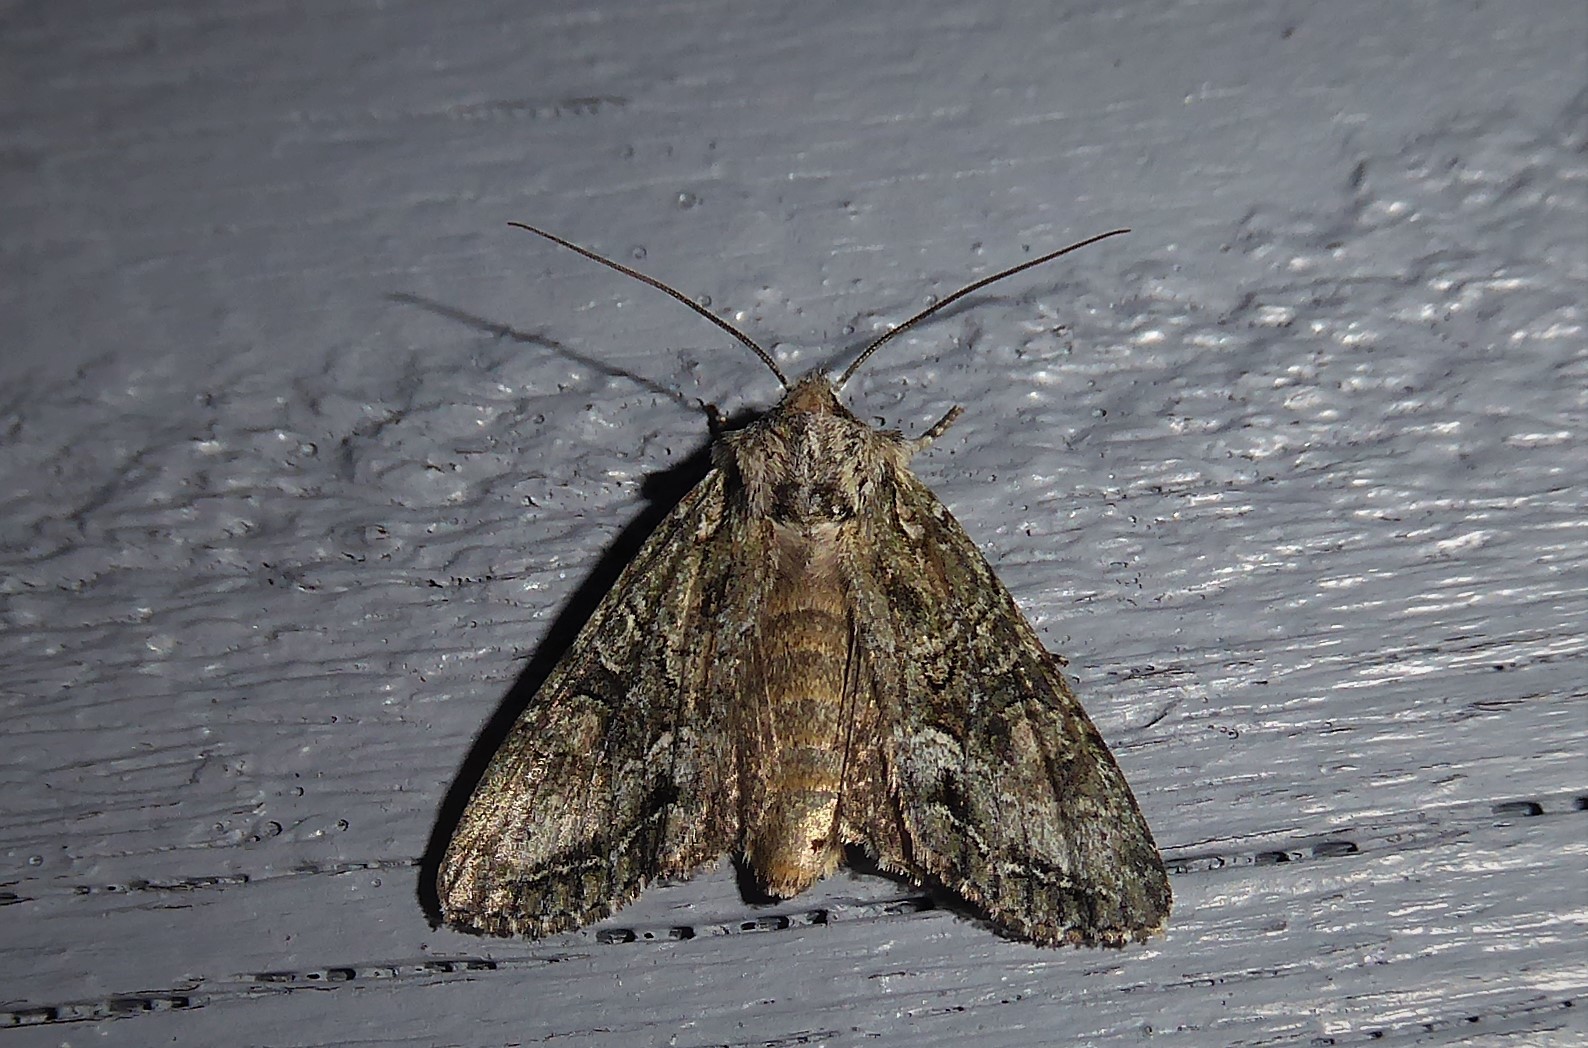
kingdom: Animalia
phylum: Arthropoda
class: Insecta
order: Lepidoptera
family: Noctuidae
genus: Ichneutica
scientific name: Ichneutica mutans
